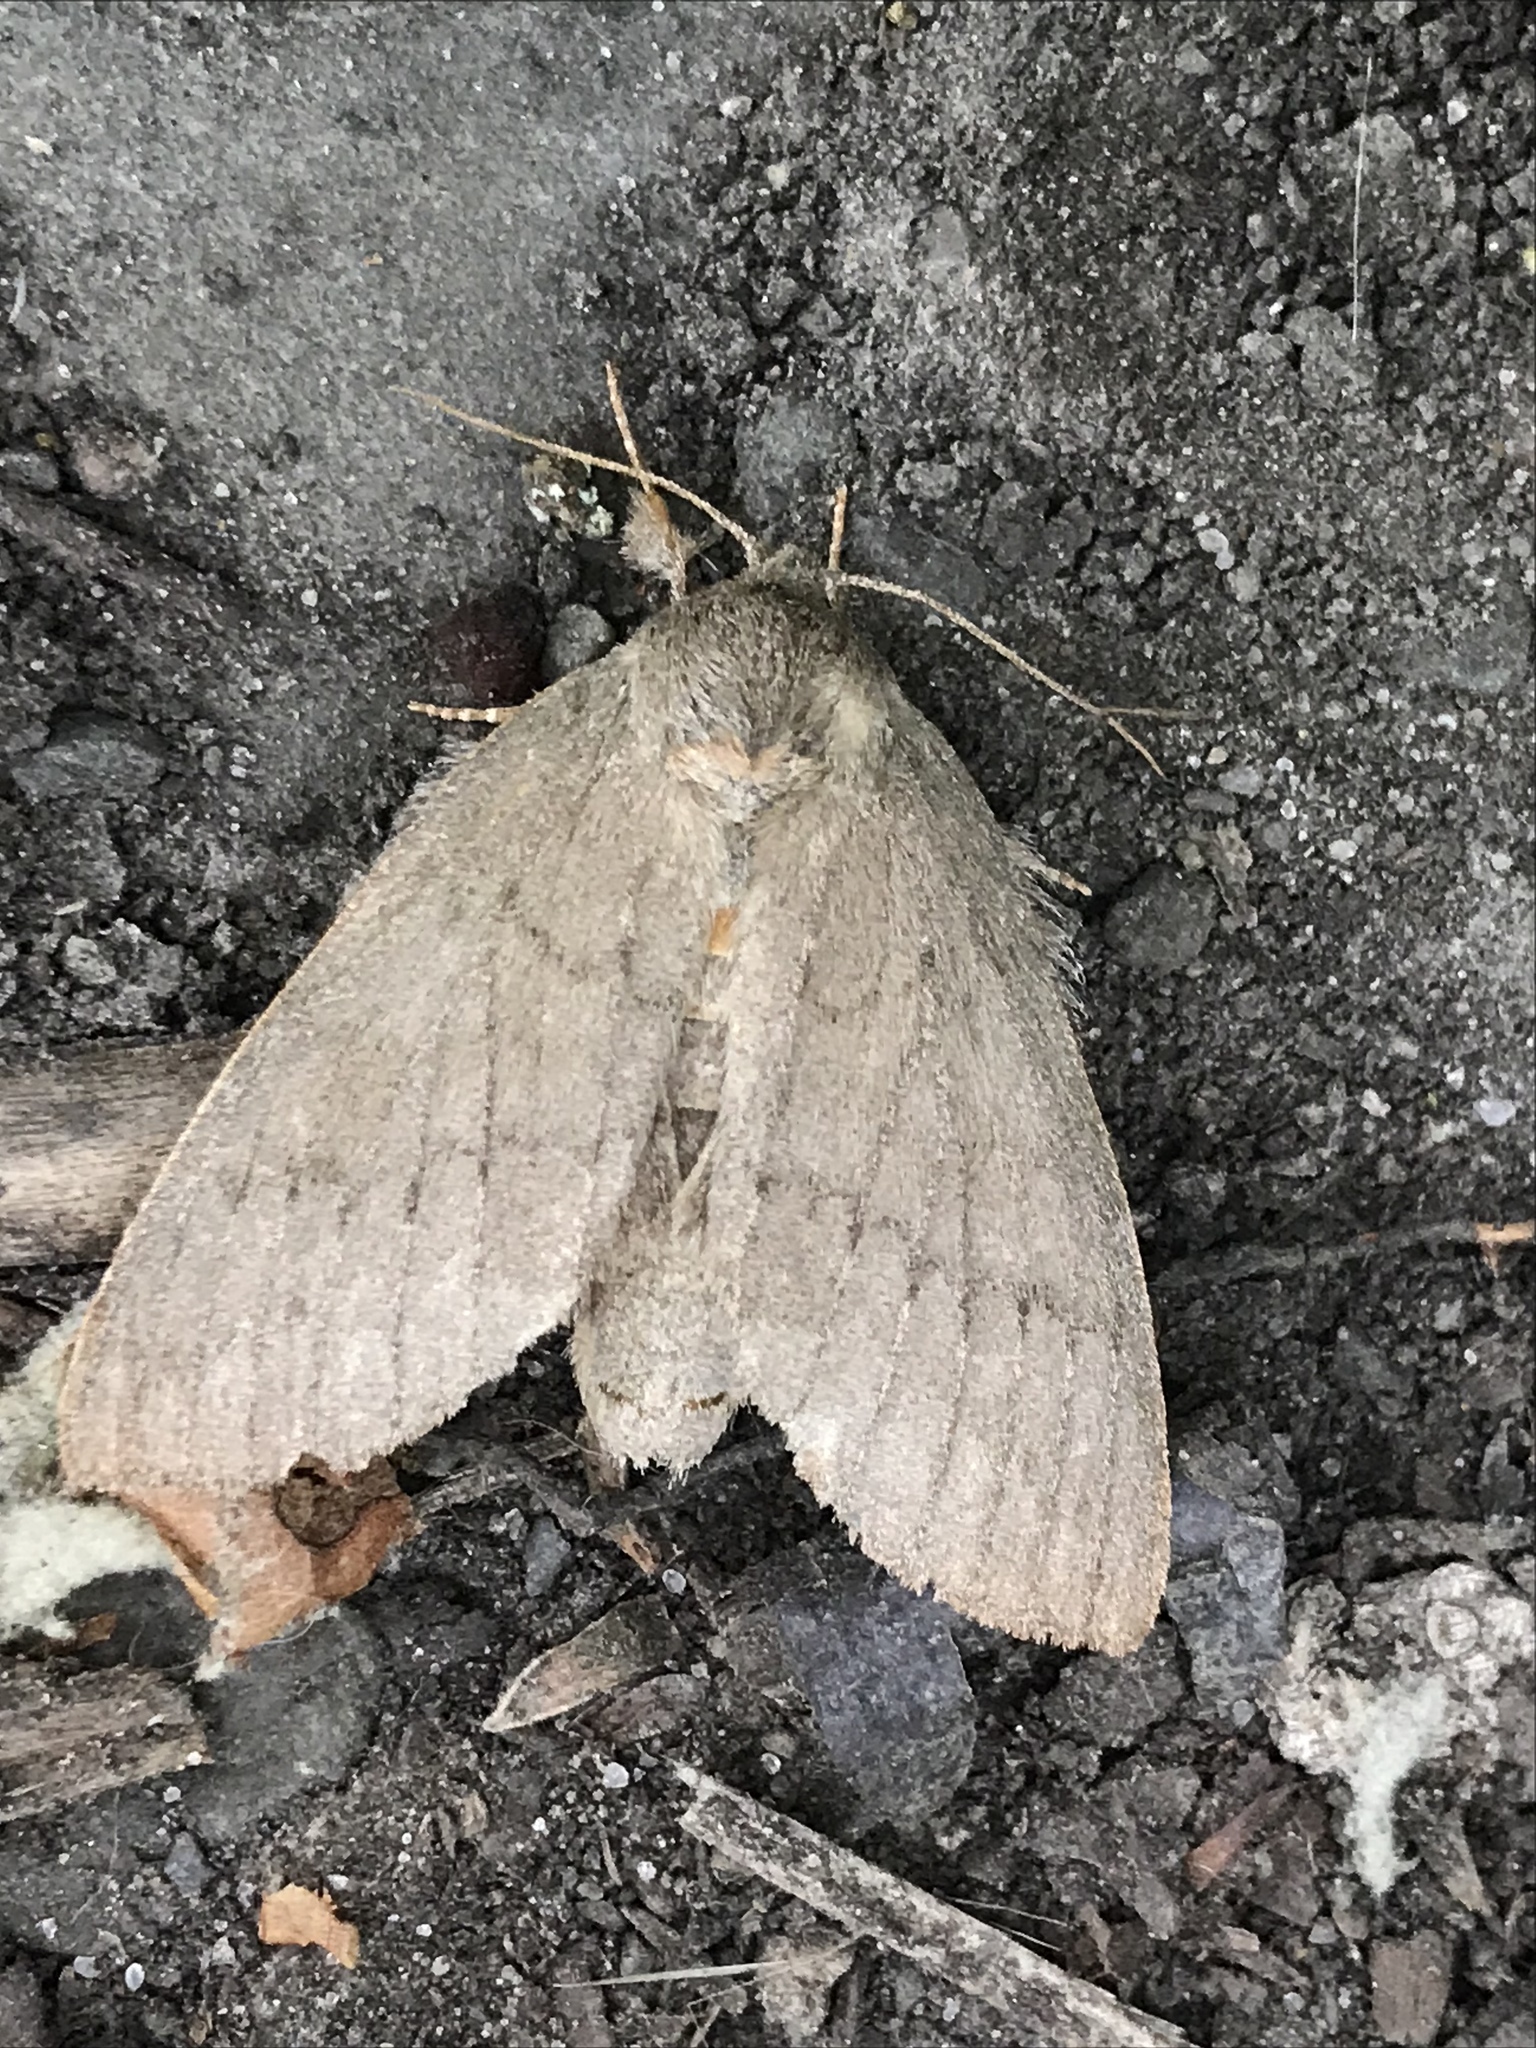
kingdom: Animalia
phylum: Arthropoda
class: Insecta
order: Lepidoptera
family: Notodontidae
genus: Misogada
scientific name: Misogada unicolor
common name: Drab prominent
